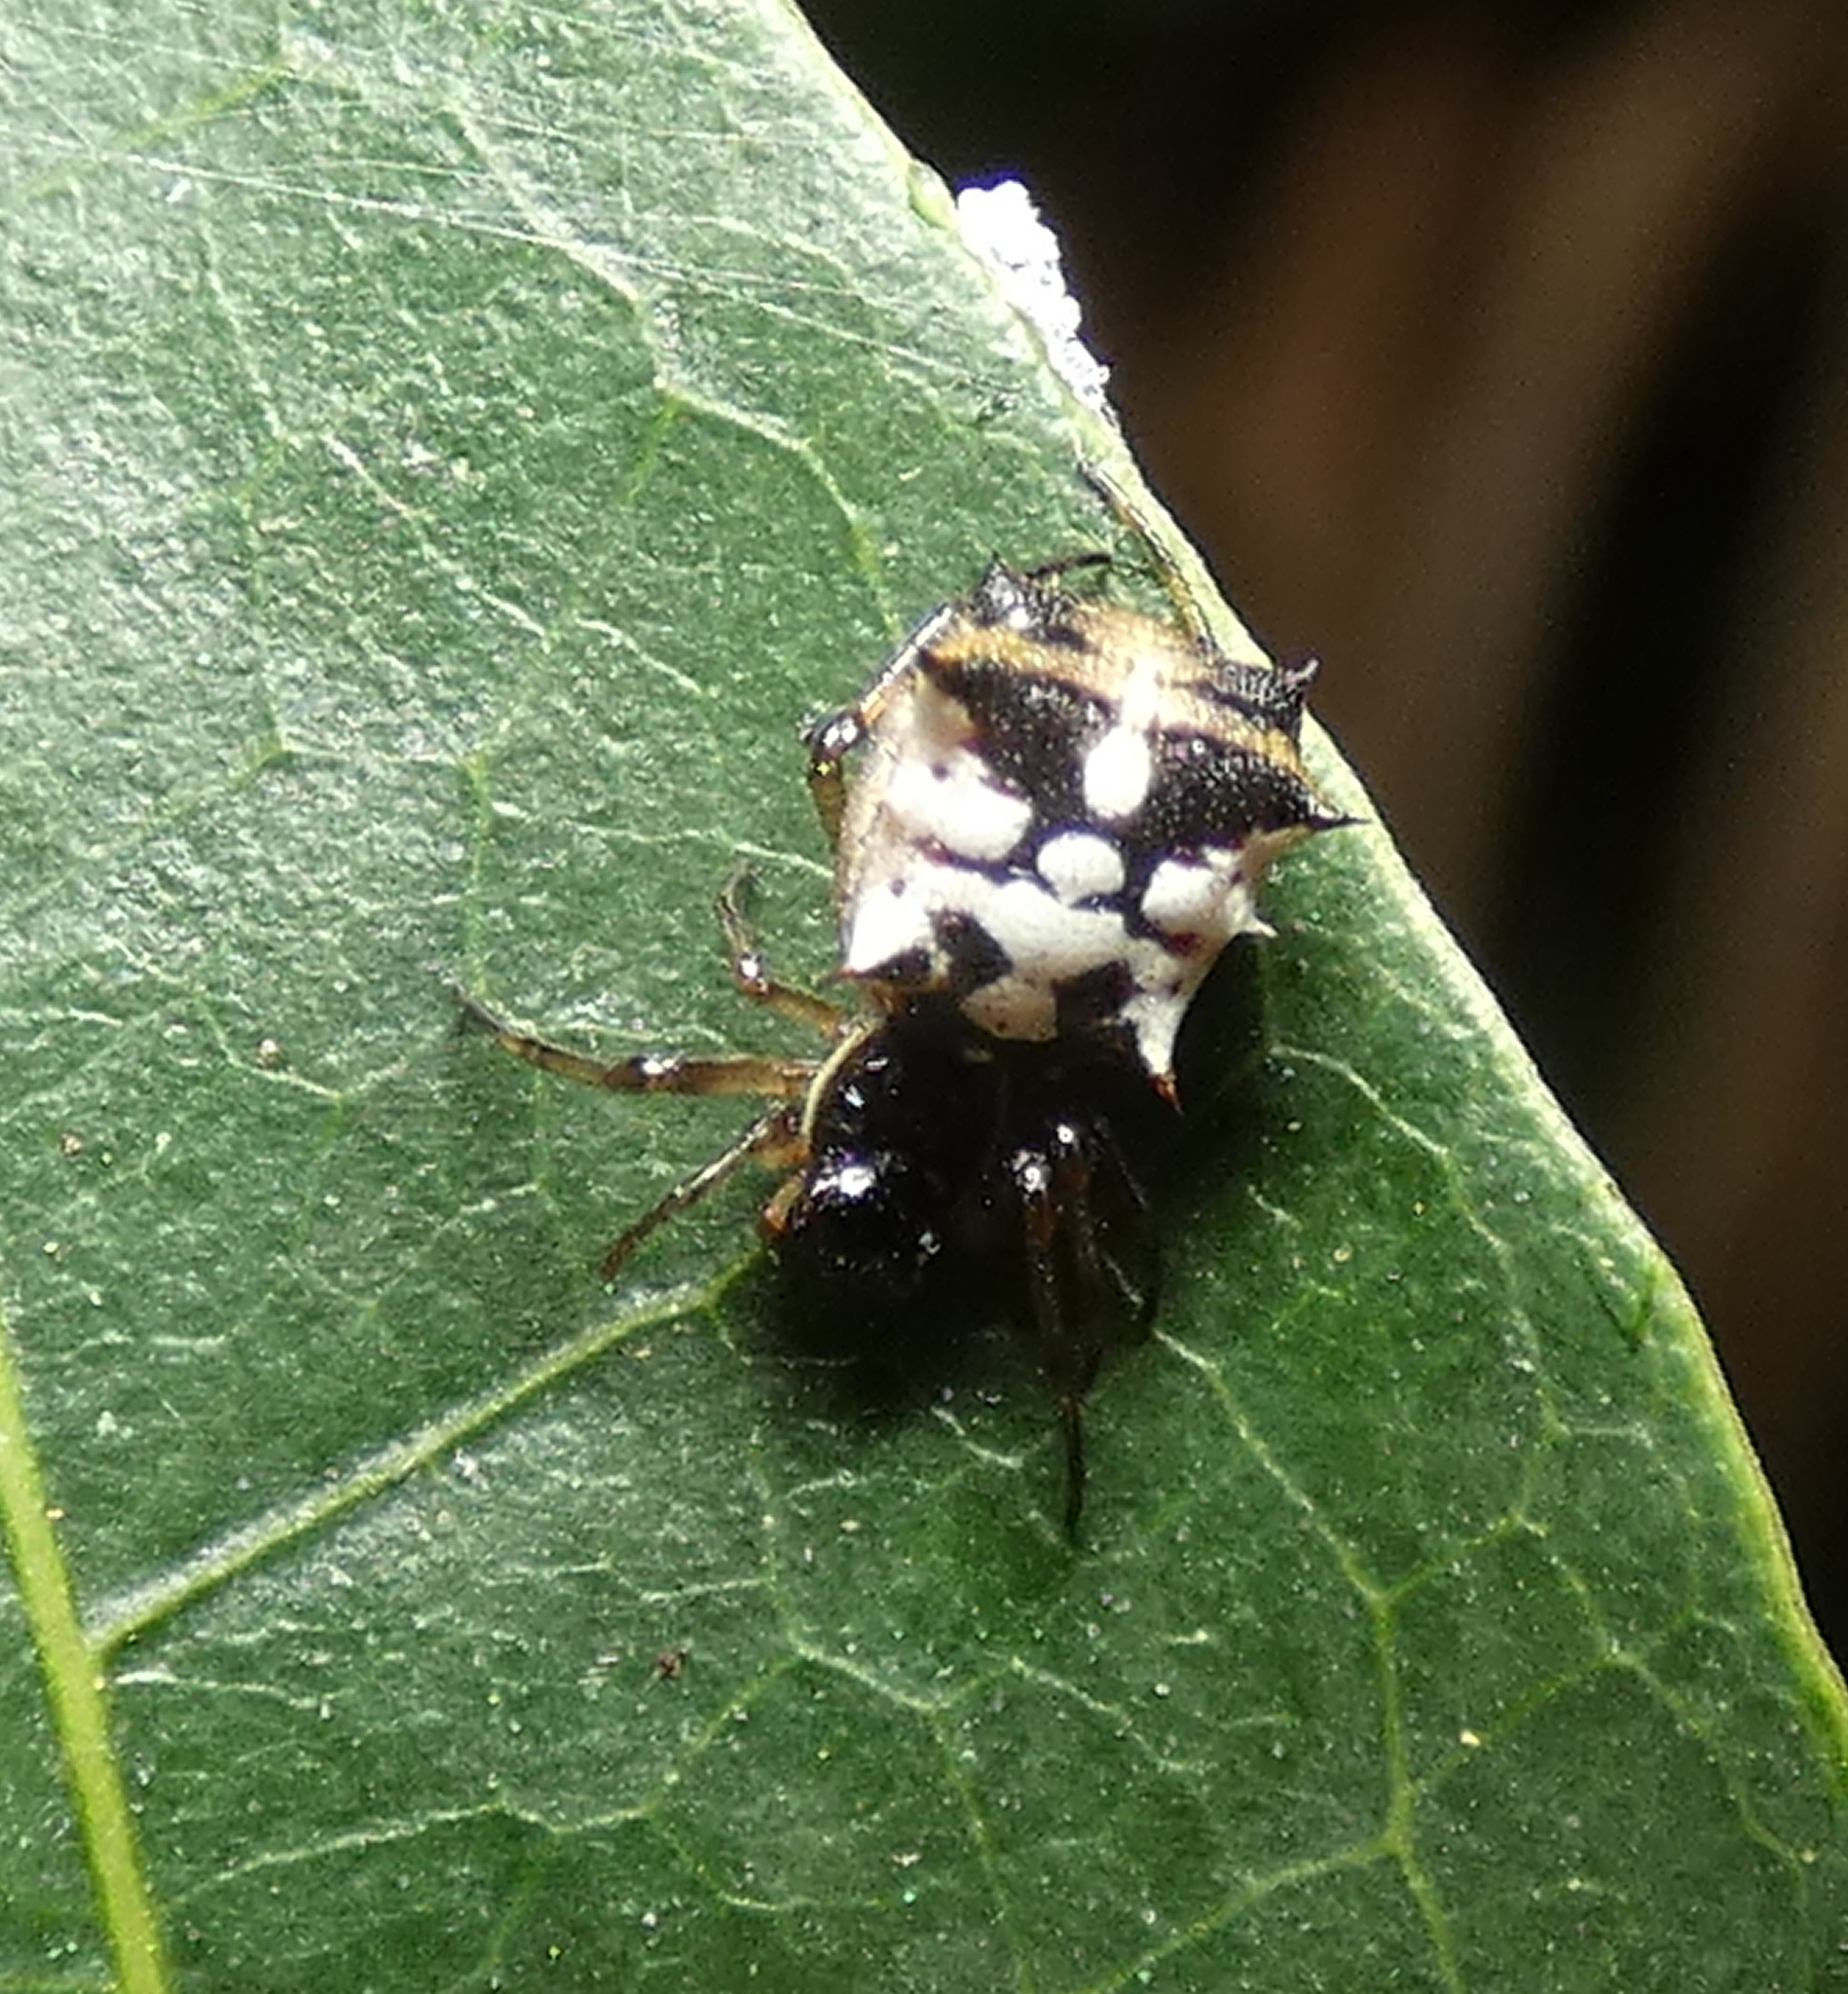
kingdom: Animalia
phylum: Arthropoda
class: Arachnida
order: Araneae
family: Araneidae
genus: Micrathena
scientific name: Micrathena picta
